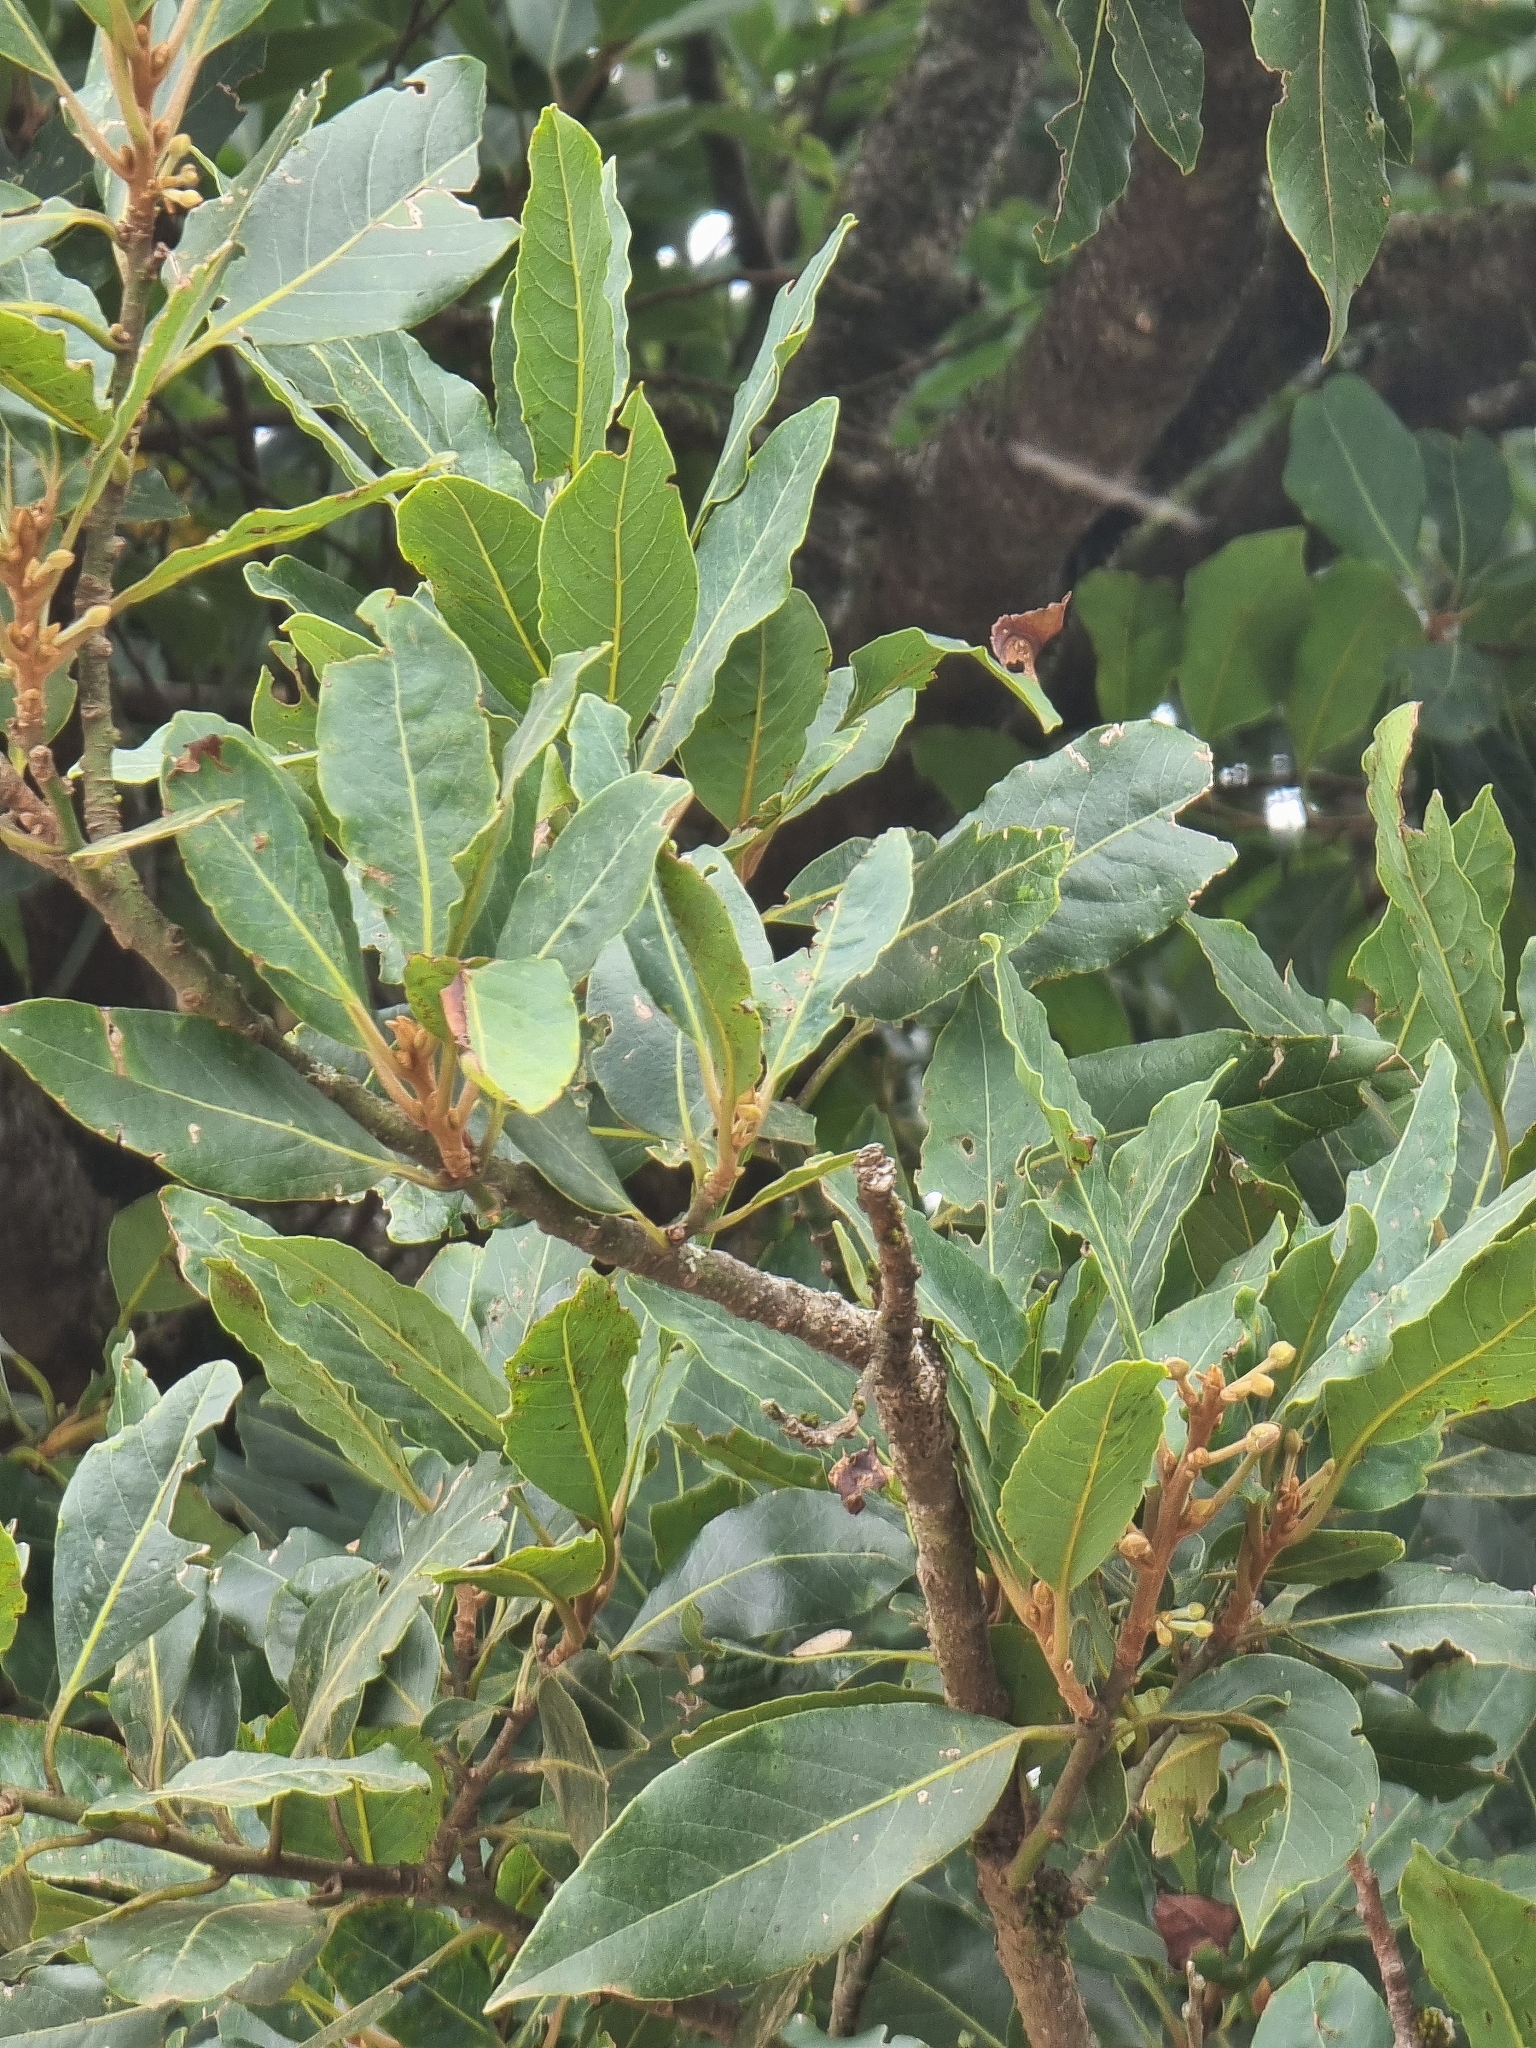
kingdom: Plantae
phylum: Tracheophyta
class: Magnoliopsida
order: Laurales
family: Lauraceae
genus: Laurus
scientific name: Laurus novocanariensis
